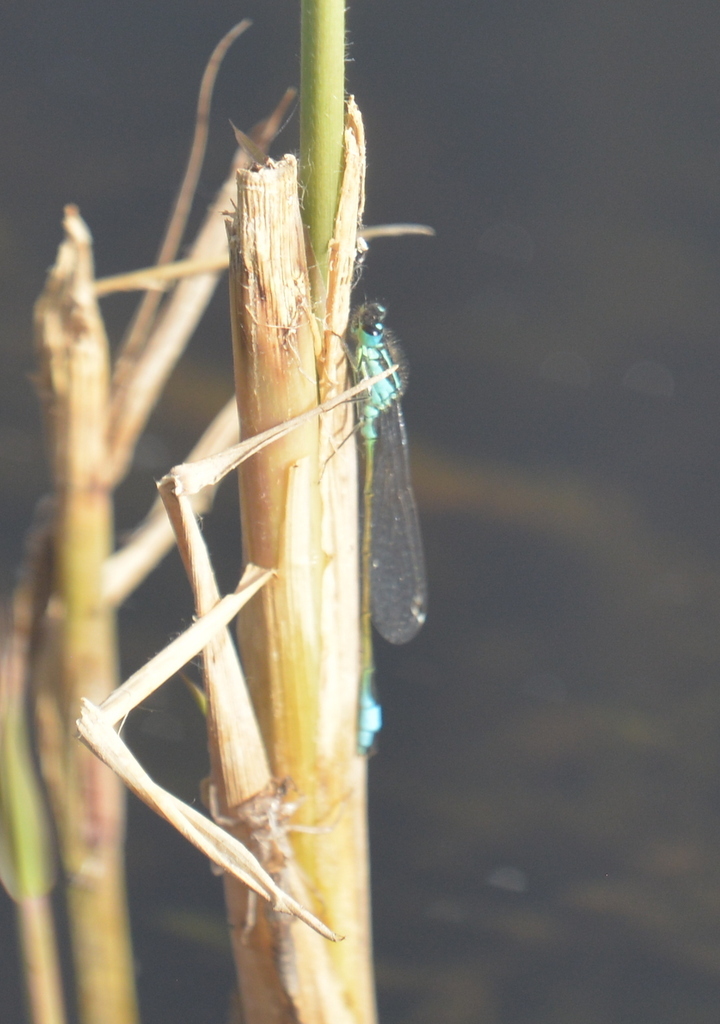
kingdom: Animalia
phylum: Arthropoda
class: Insecta
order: Odonata
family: Coenagrionidae
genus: Ischnura
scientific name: Ischnura elegans
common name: Blue-tailed damselfly
